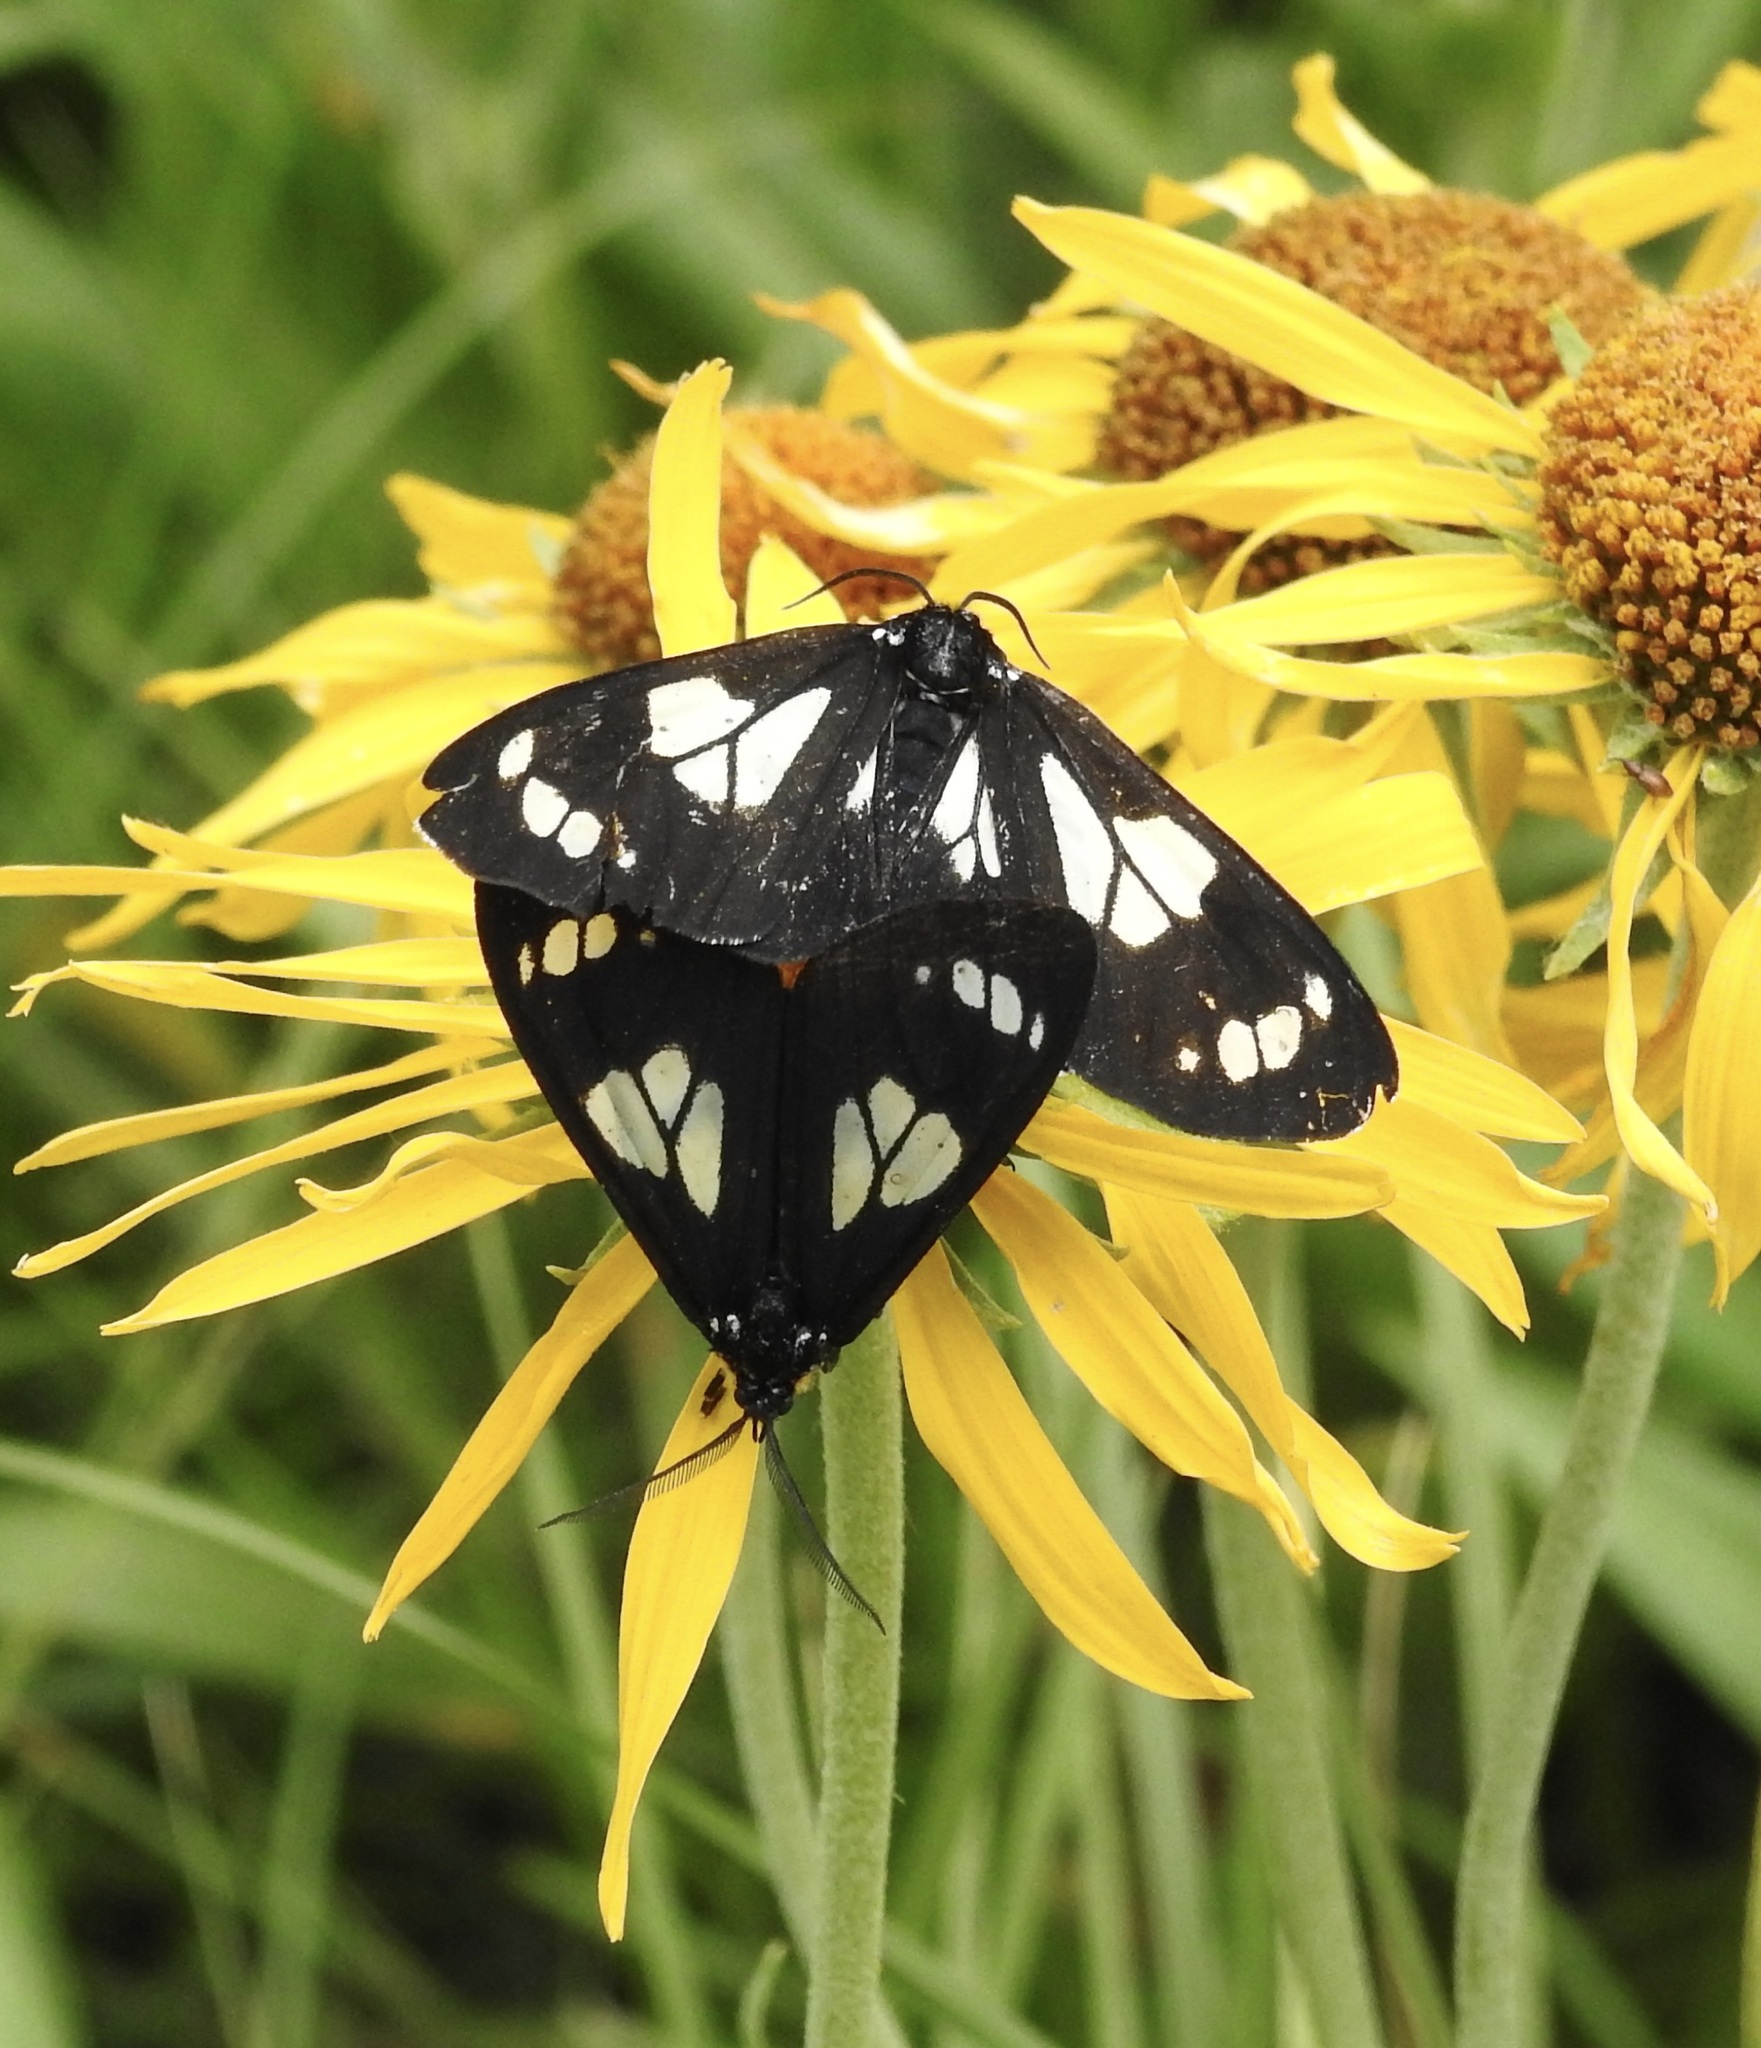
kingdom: Animalia
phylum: Arthropoda
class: Insecta
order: Lepidoptera
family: Erebidae
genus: Gnophaela
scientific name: Gnophaela discreta
